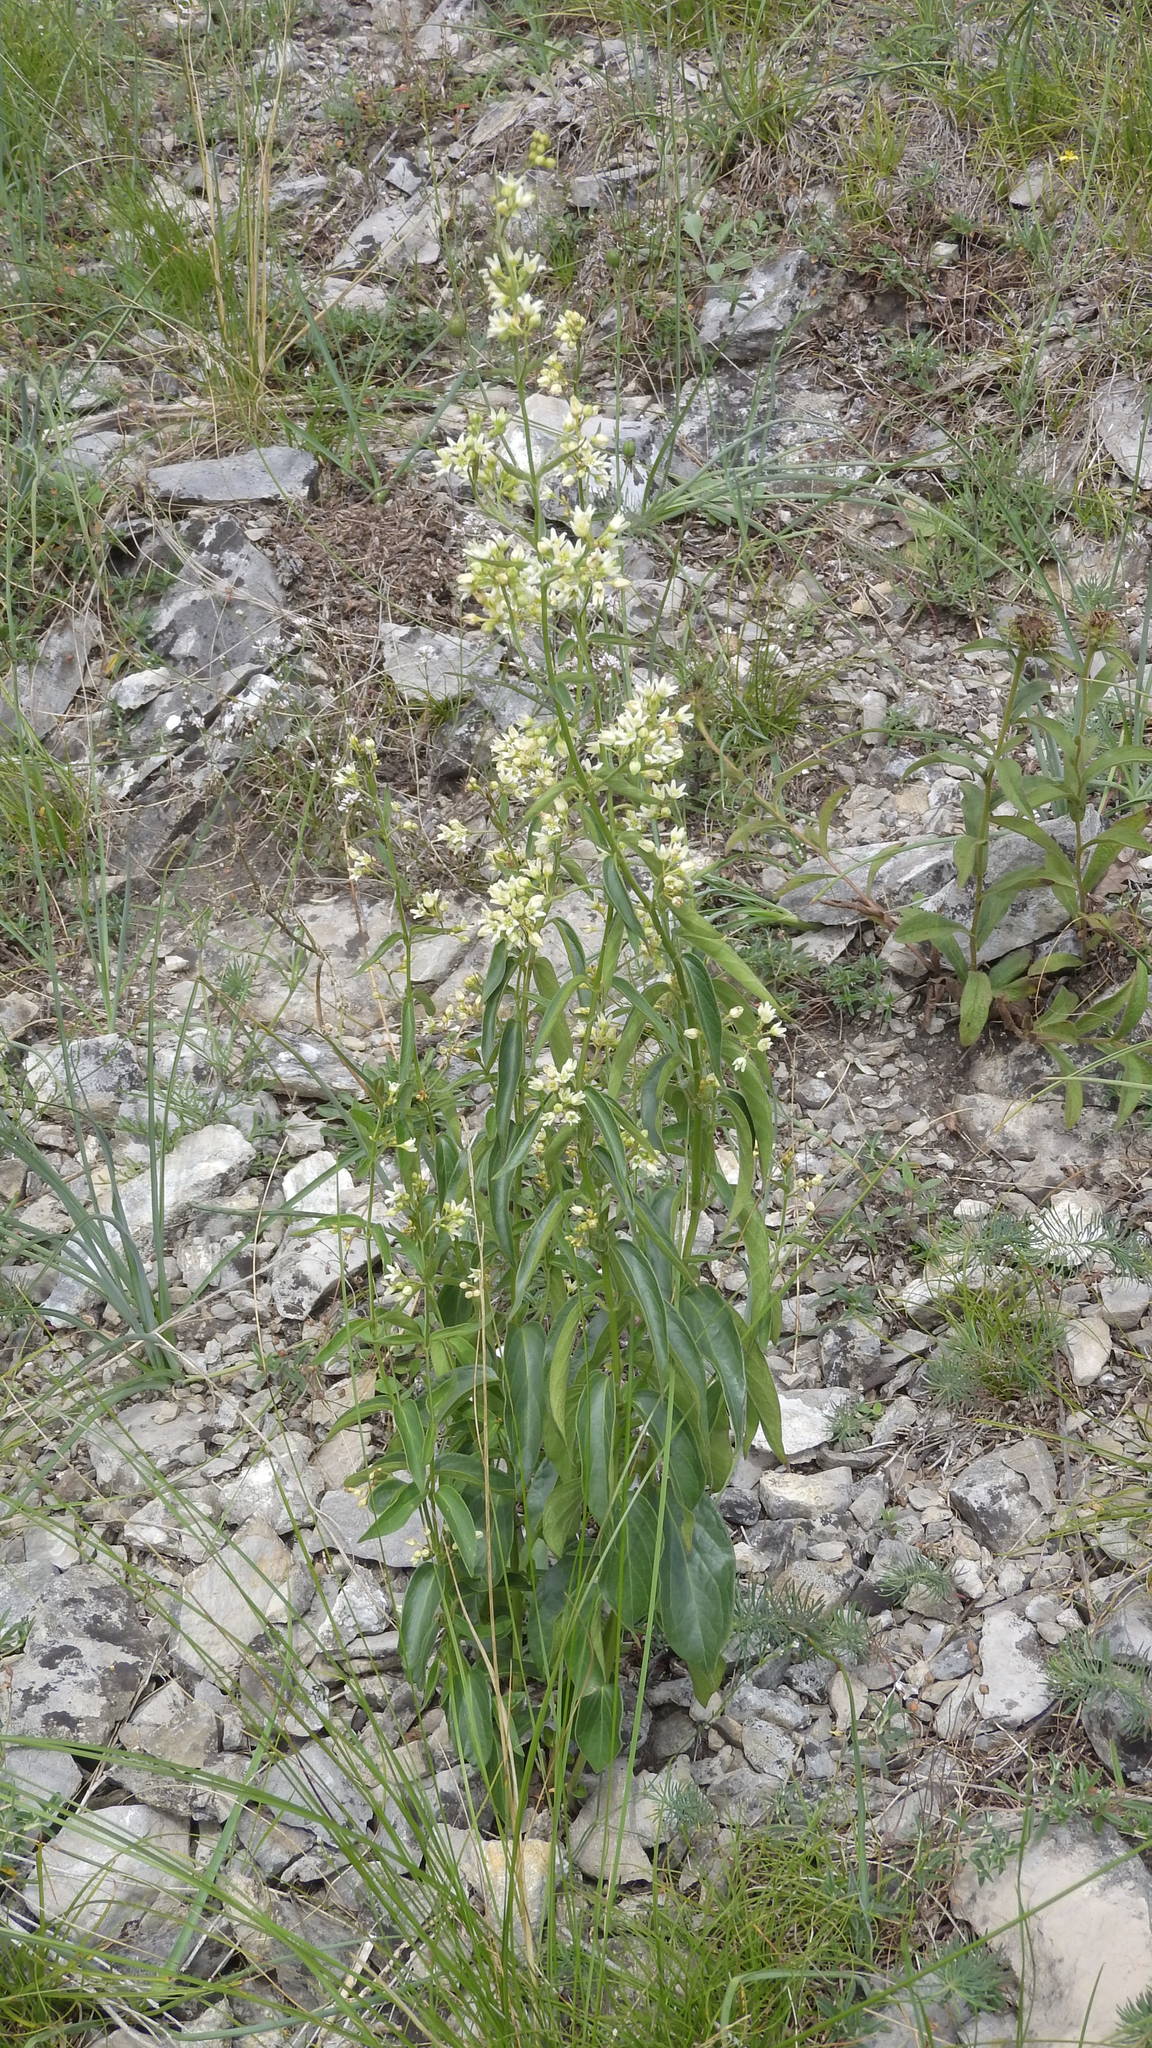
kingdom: Plantae
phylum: Tracheophyta
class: Magnoliopsida
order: Gentianales
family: Apocynaceae
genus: Vincetoxicum
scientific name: Vincetoxicum hirundinaria
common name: White swallowwort
